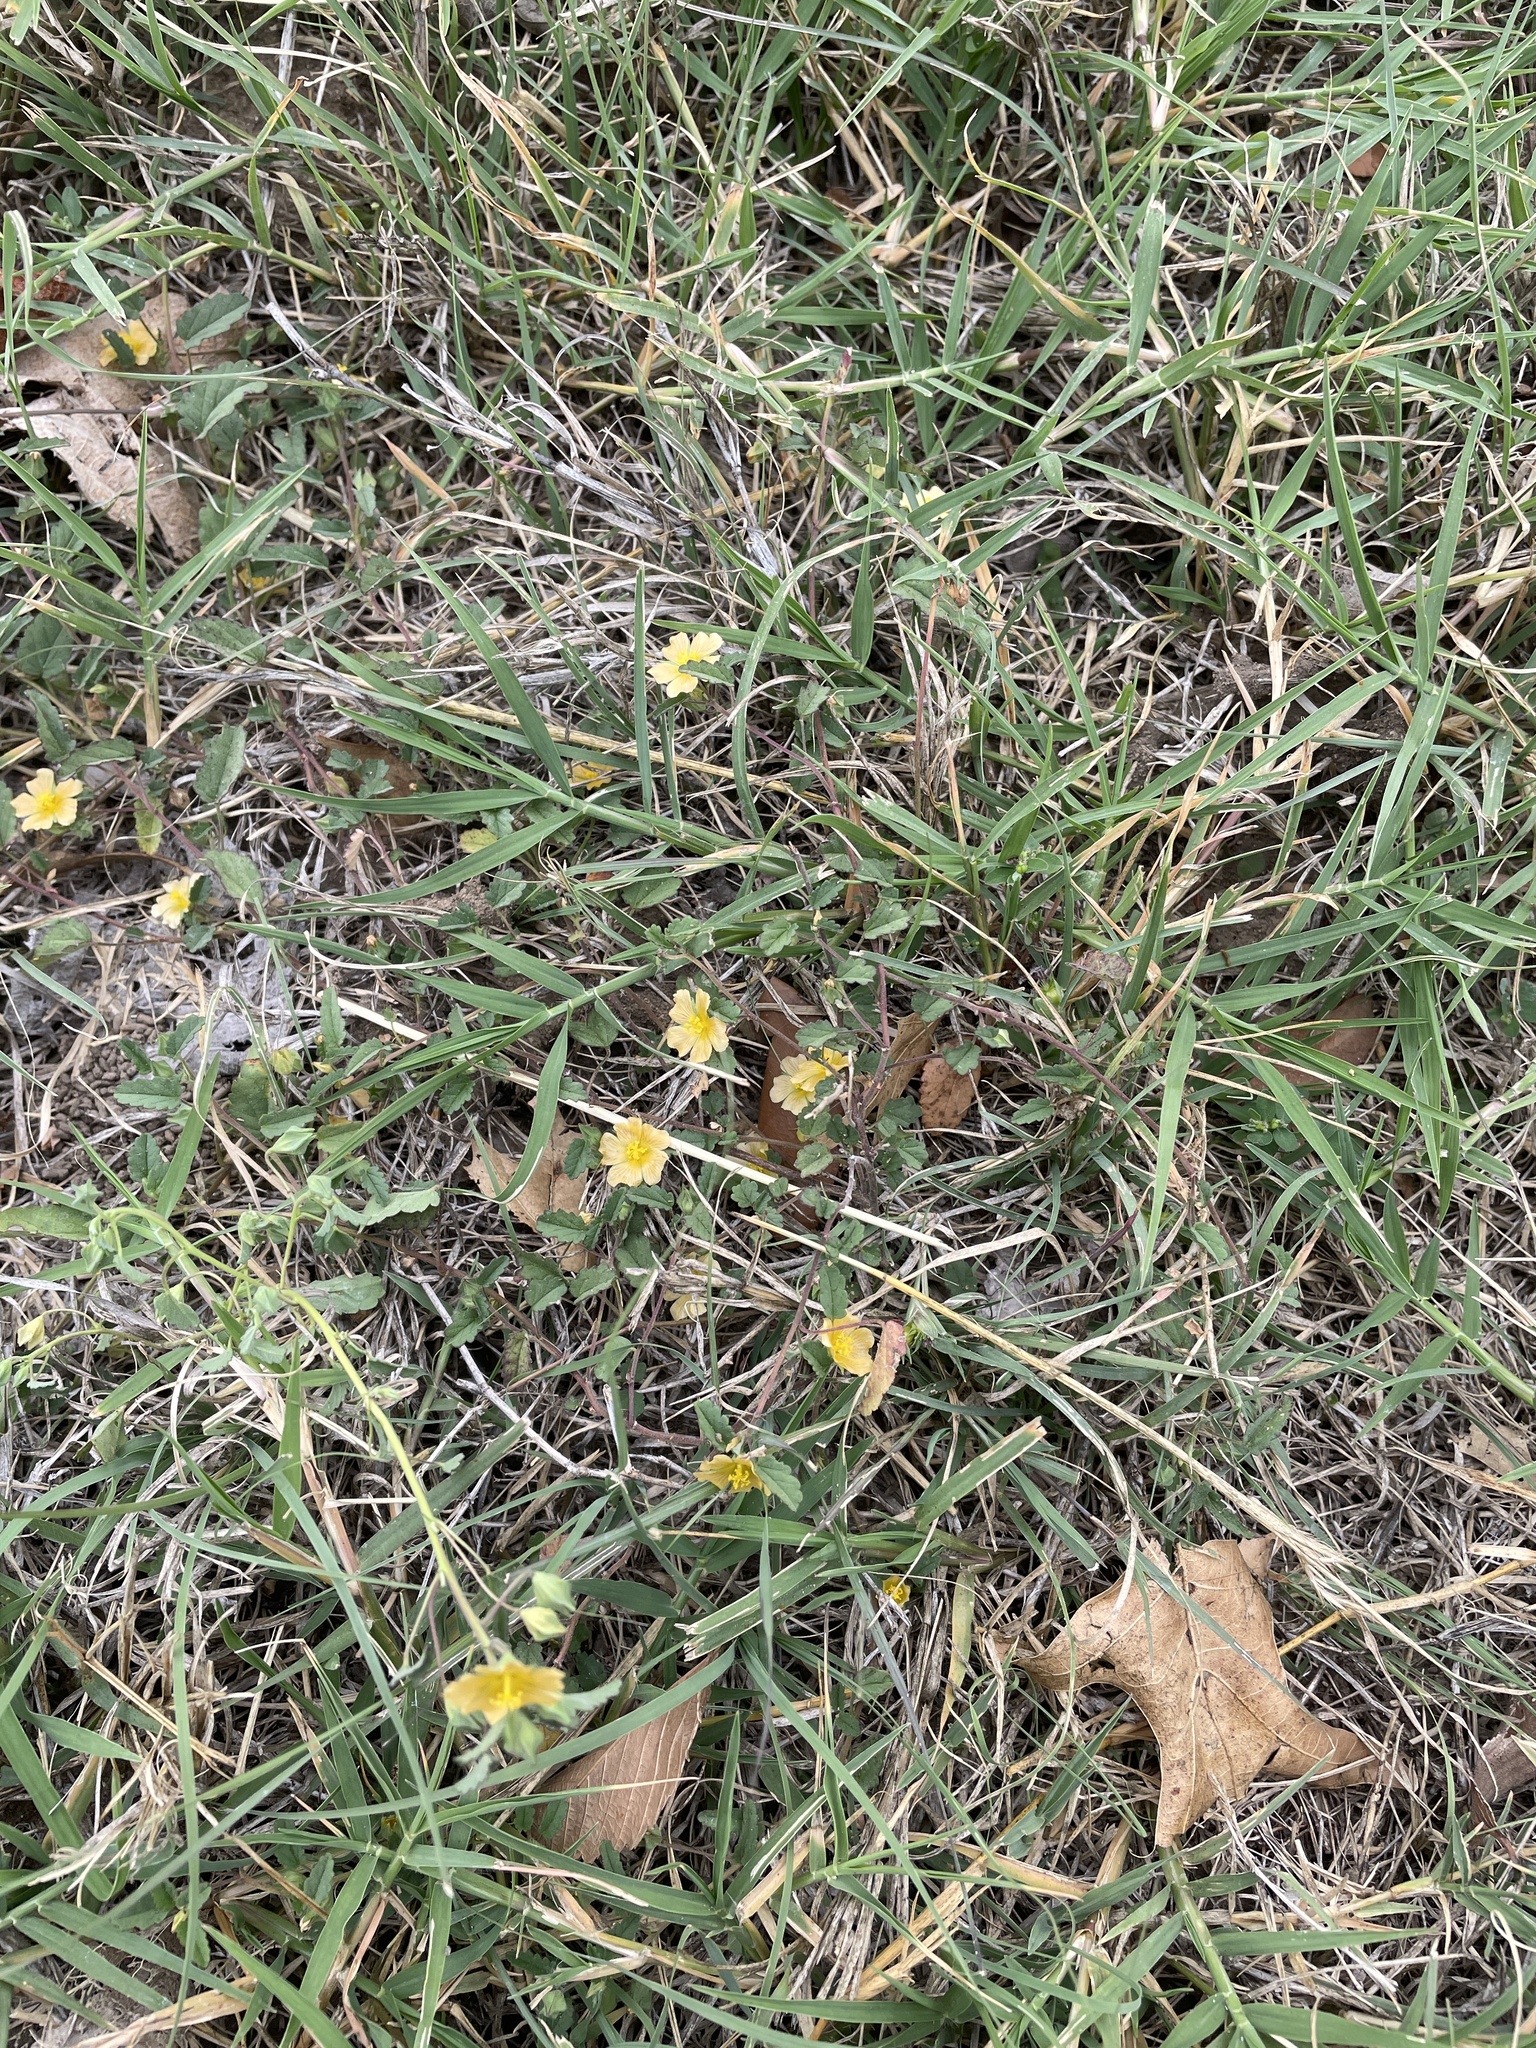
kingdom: Plantae
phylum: Tracheophyta
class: Magnoliopsida
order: Malvales
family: Malvaceae
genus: Sida
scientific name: Sida abutilifolia
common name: Spreading fanpetals
